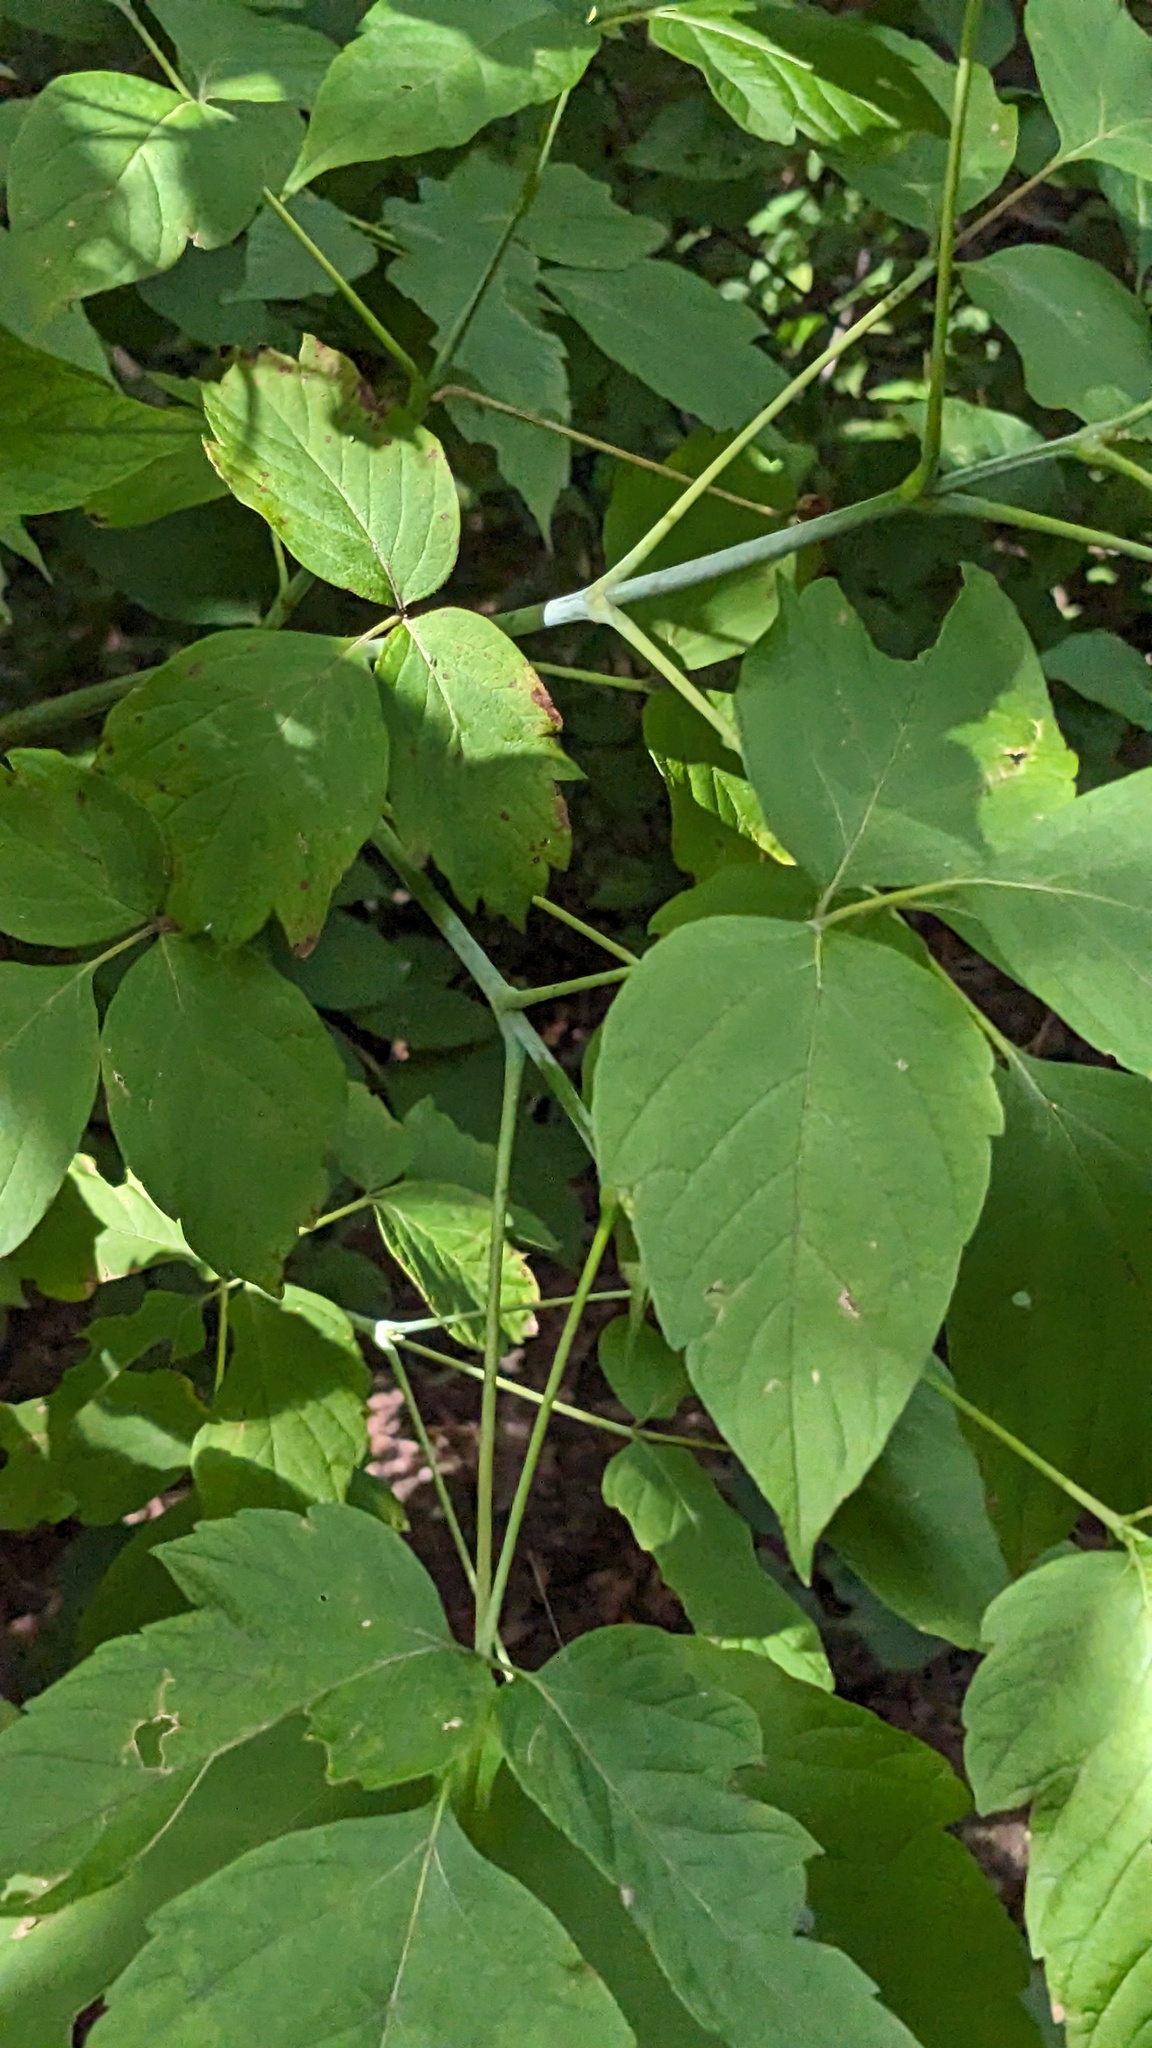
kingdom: Plantae
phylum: Tracheophyta
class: Magnoliopsida
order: Sapindales
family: Sapindaceae
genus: Acer
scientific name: Acer negundo
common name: Ashleaf maple
